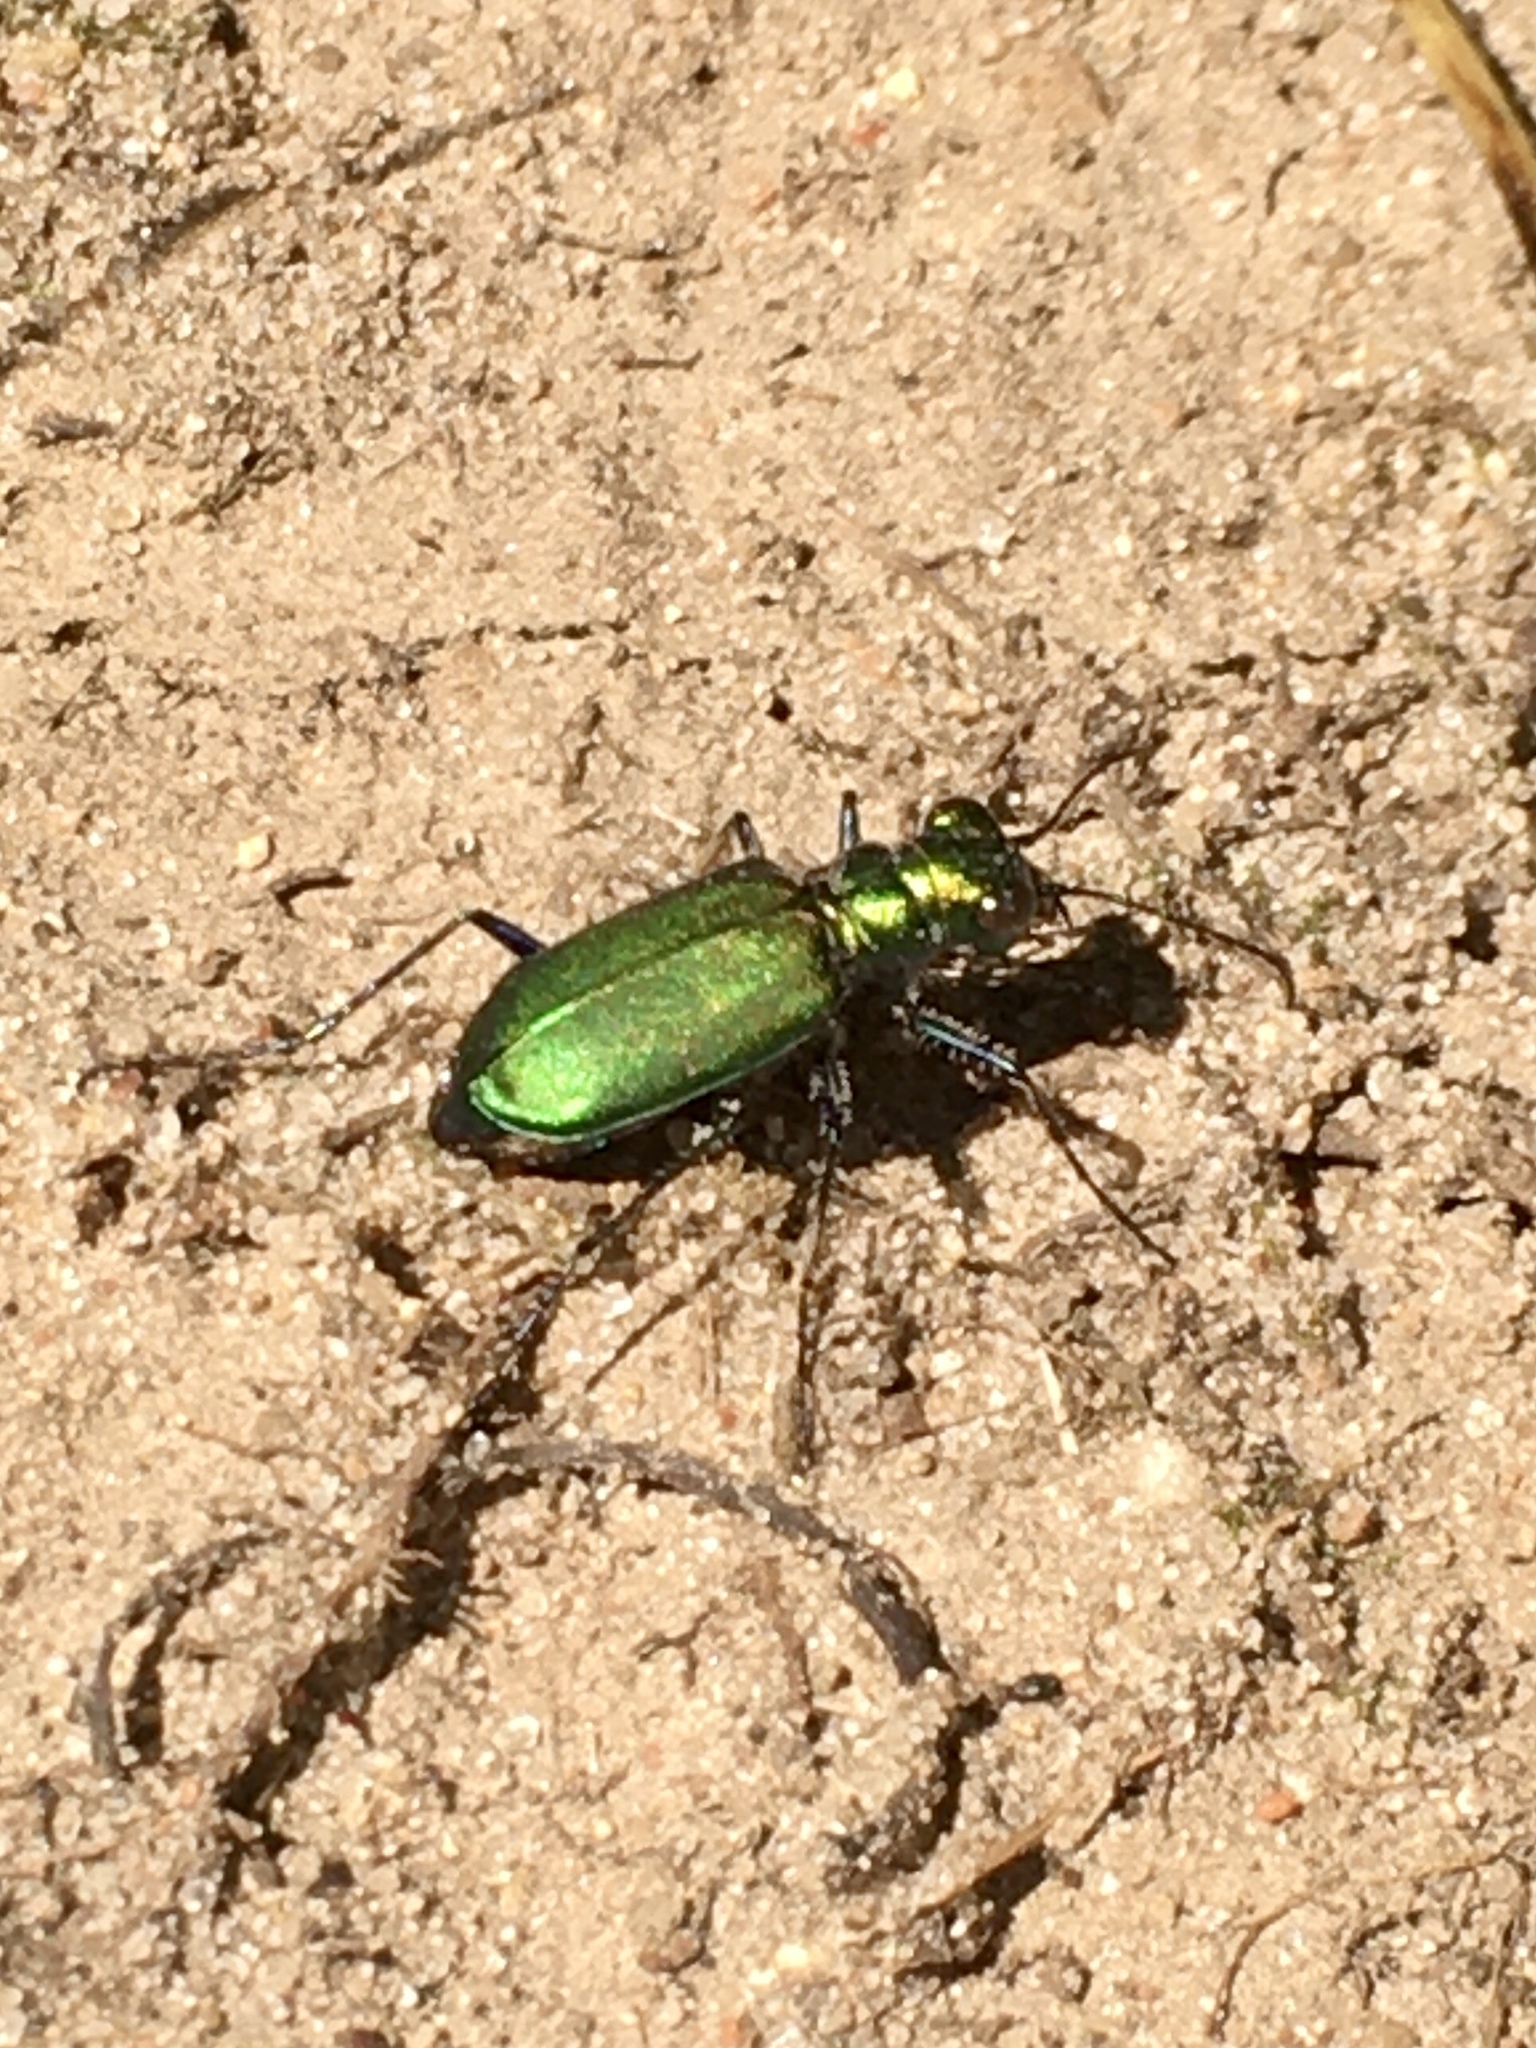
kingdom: Animalia
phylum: Arthropoda
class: Insecta
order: Coleoptera
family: Carabidae
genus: Cicindela
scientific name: Cicindela sexguttata
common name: Six-spotted tiger beetle
